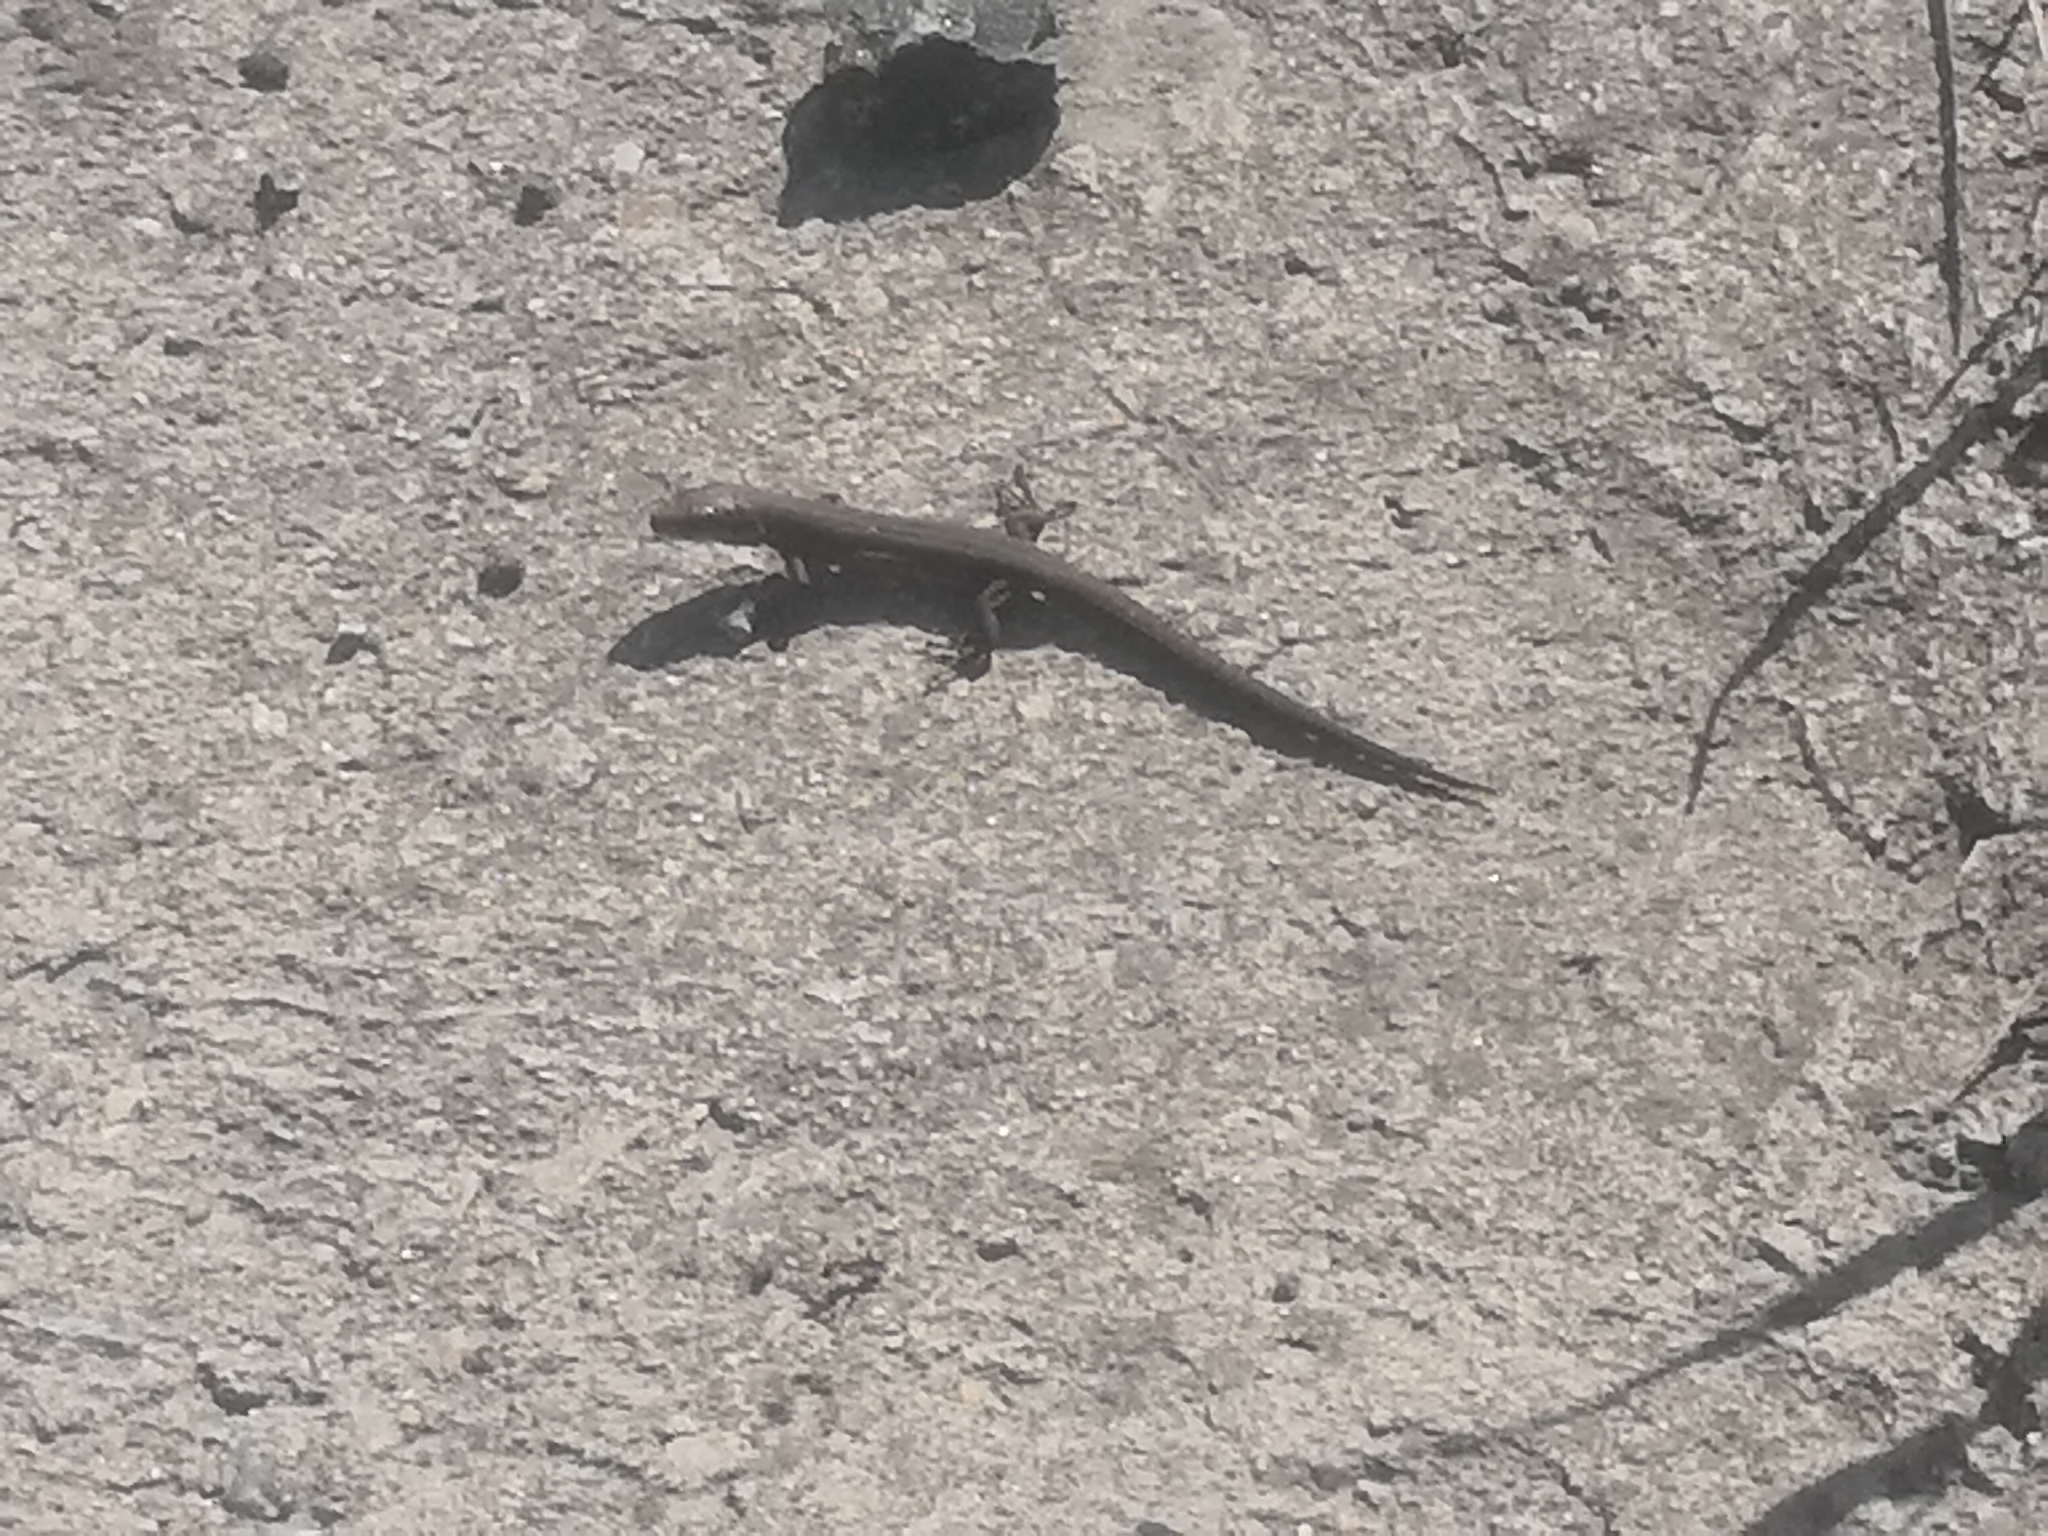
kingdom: Animalia
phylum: Chordata
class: Squamata
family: Lacertidae
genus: Zootoca
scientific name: Zootoca vivipara
